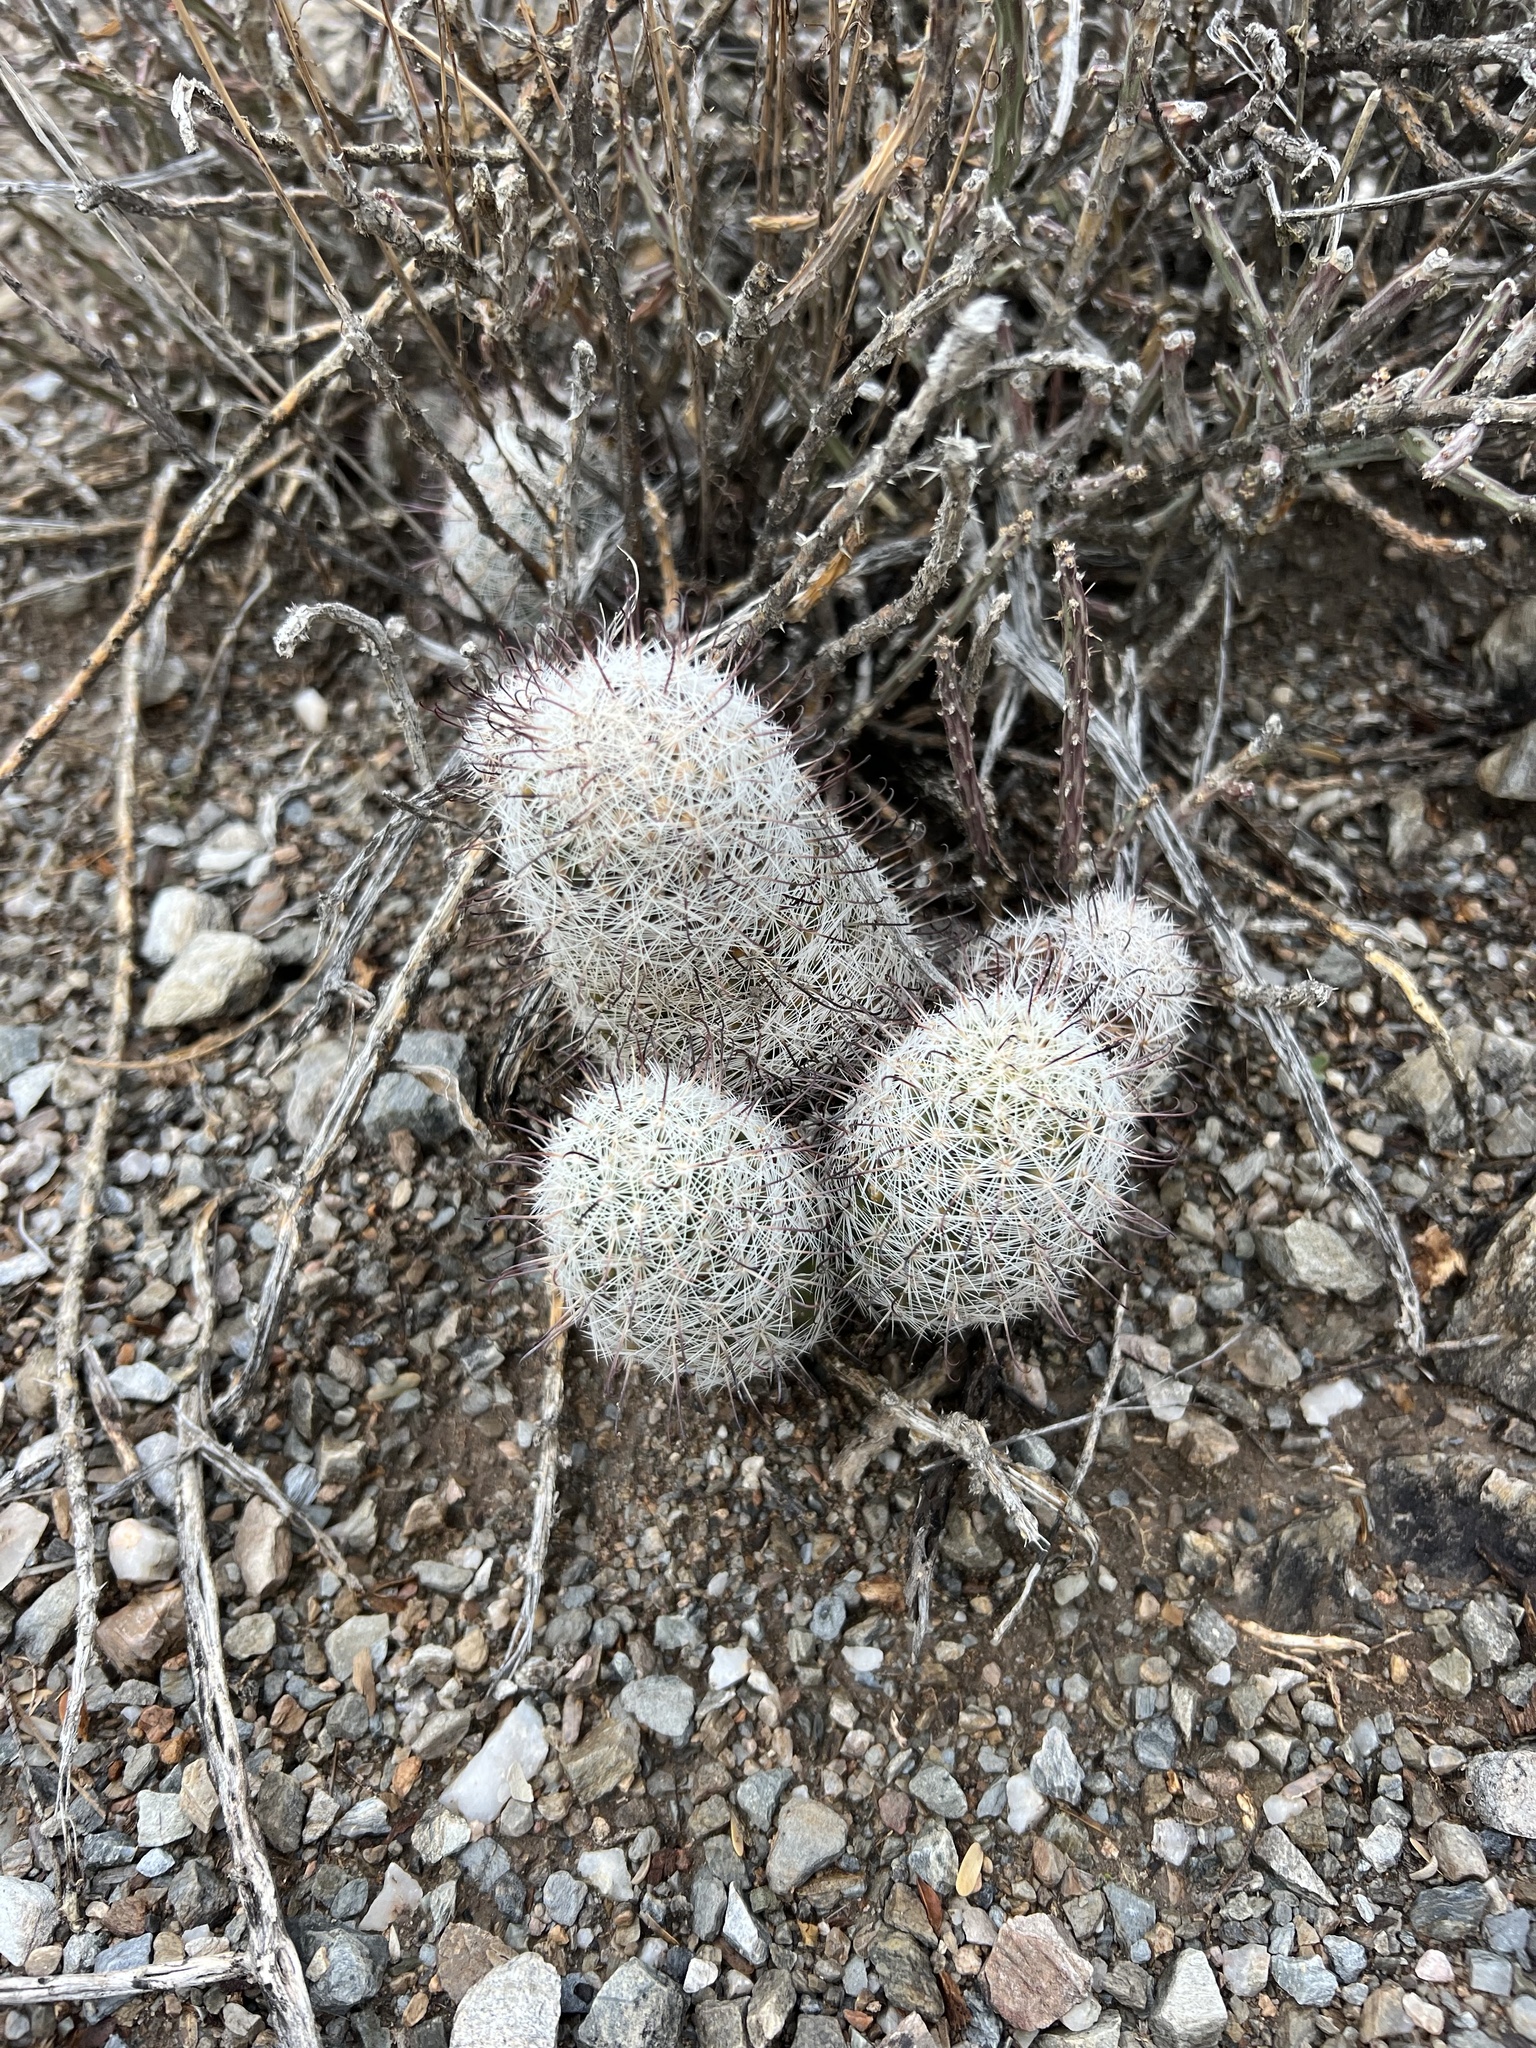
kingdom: Plantae
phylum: Tracheophyta
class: Magnoliopsida
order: Caryophyllales
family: Cactaceae
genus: Cochemiea
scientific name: Cochemiea grahamii
